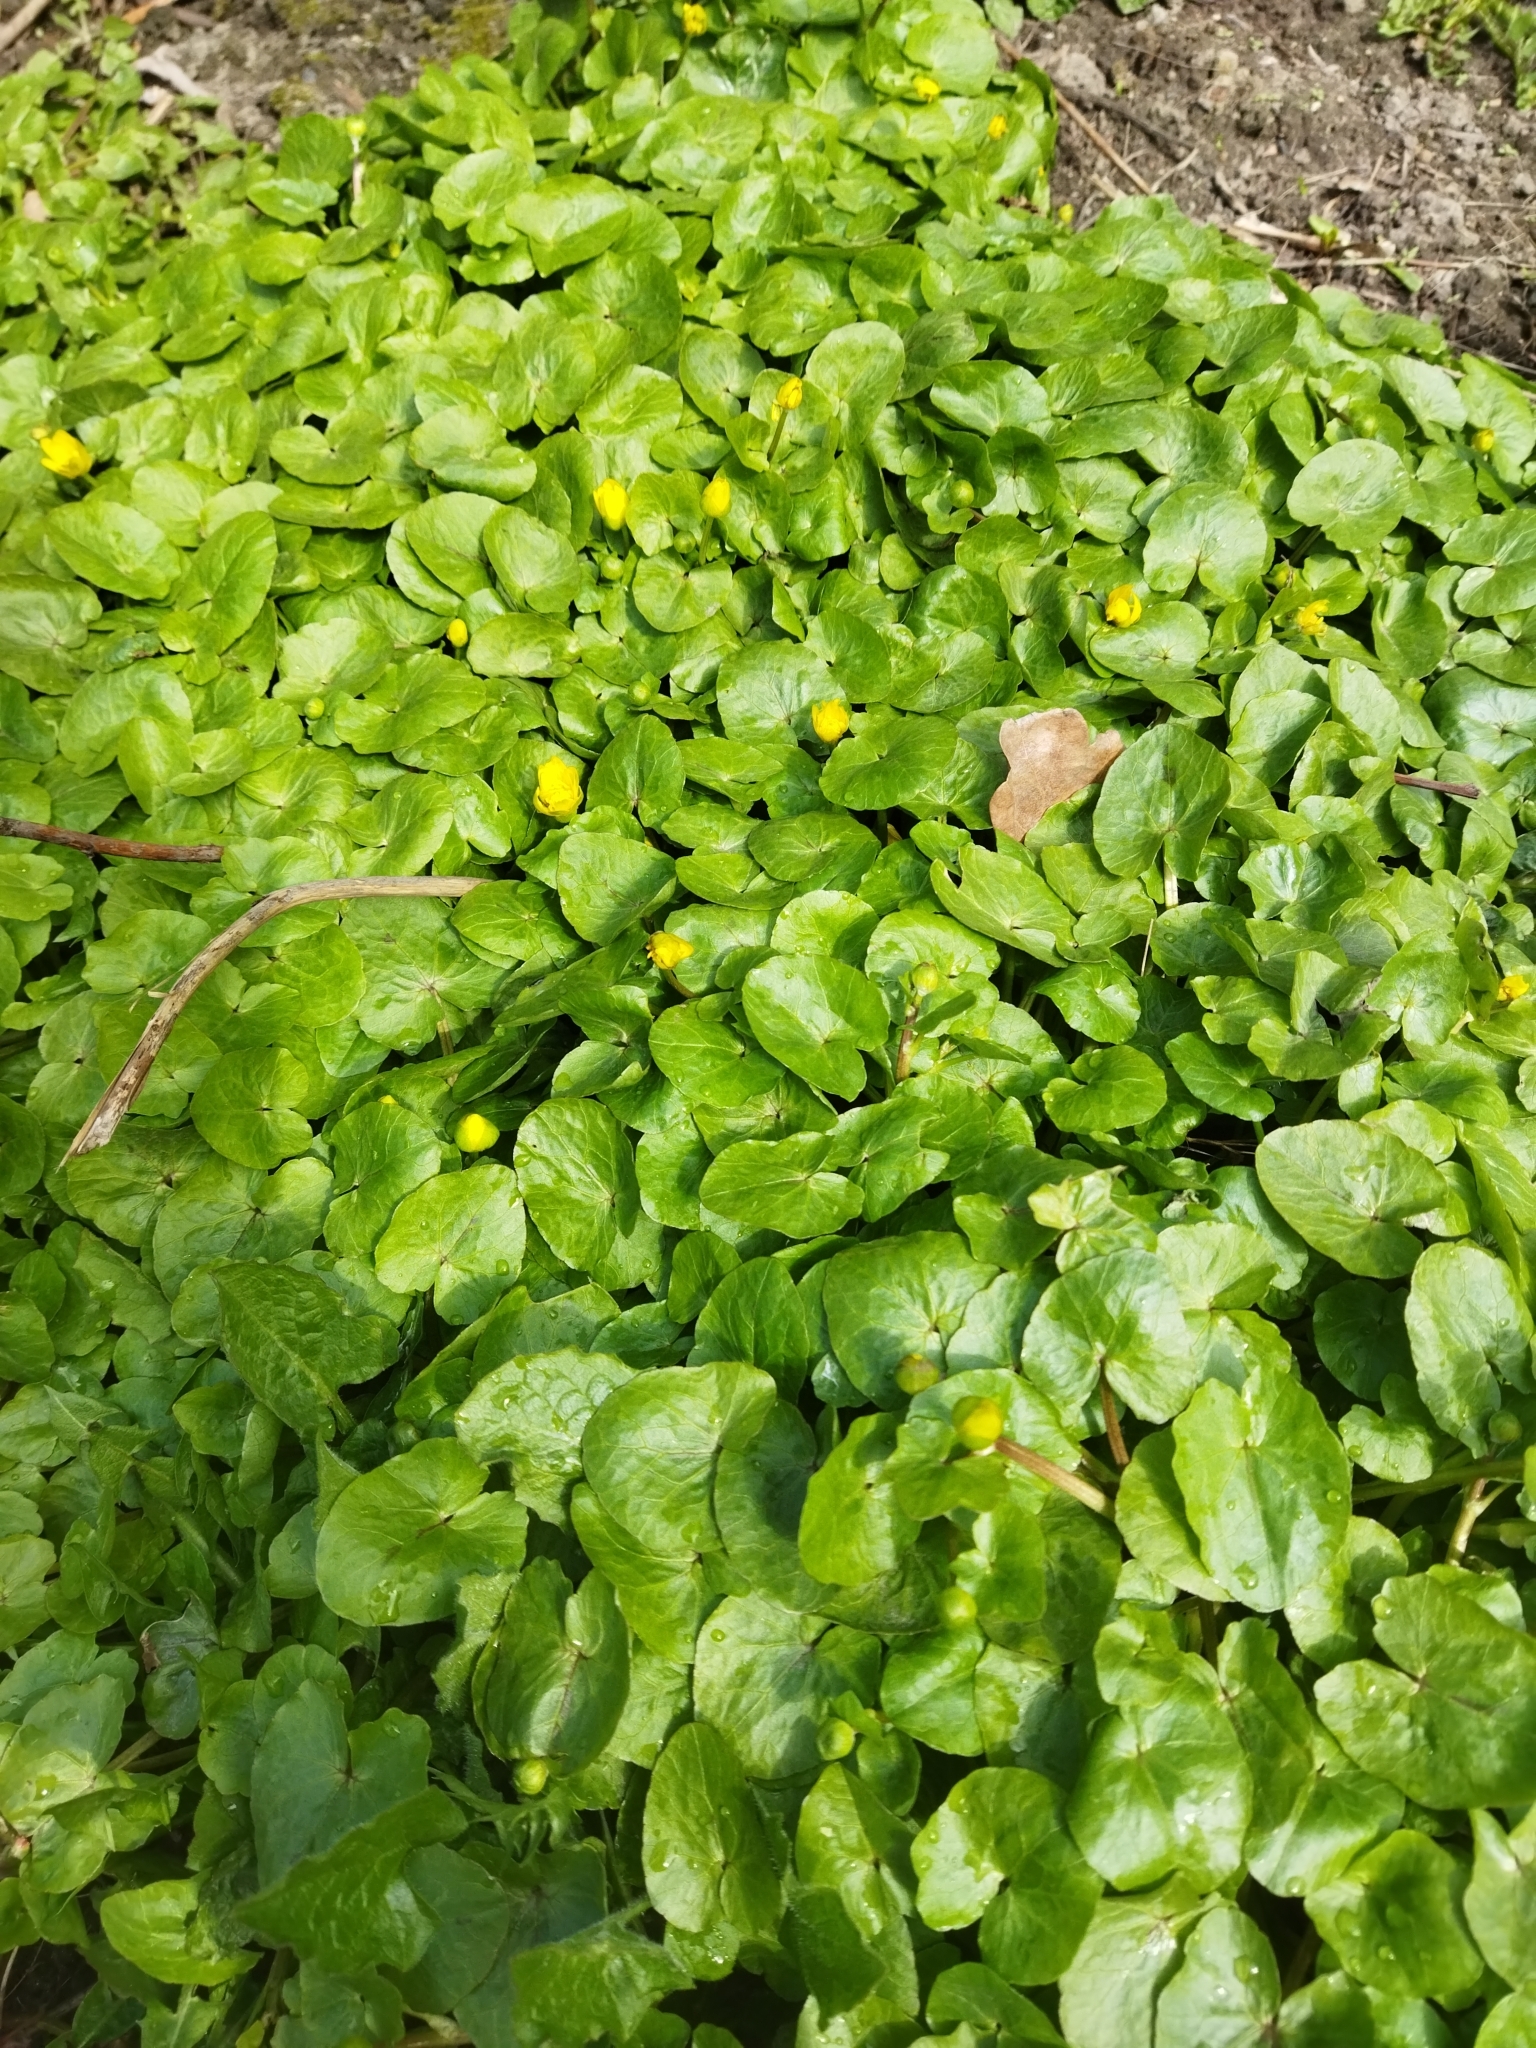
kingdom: Plantae
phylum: Tracheophyta
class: Magnoliopsida
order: Ranunculales
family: Ranunculaceae
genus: Ficaria
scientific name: Ficaria verna
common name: Lesser celandine
